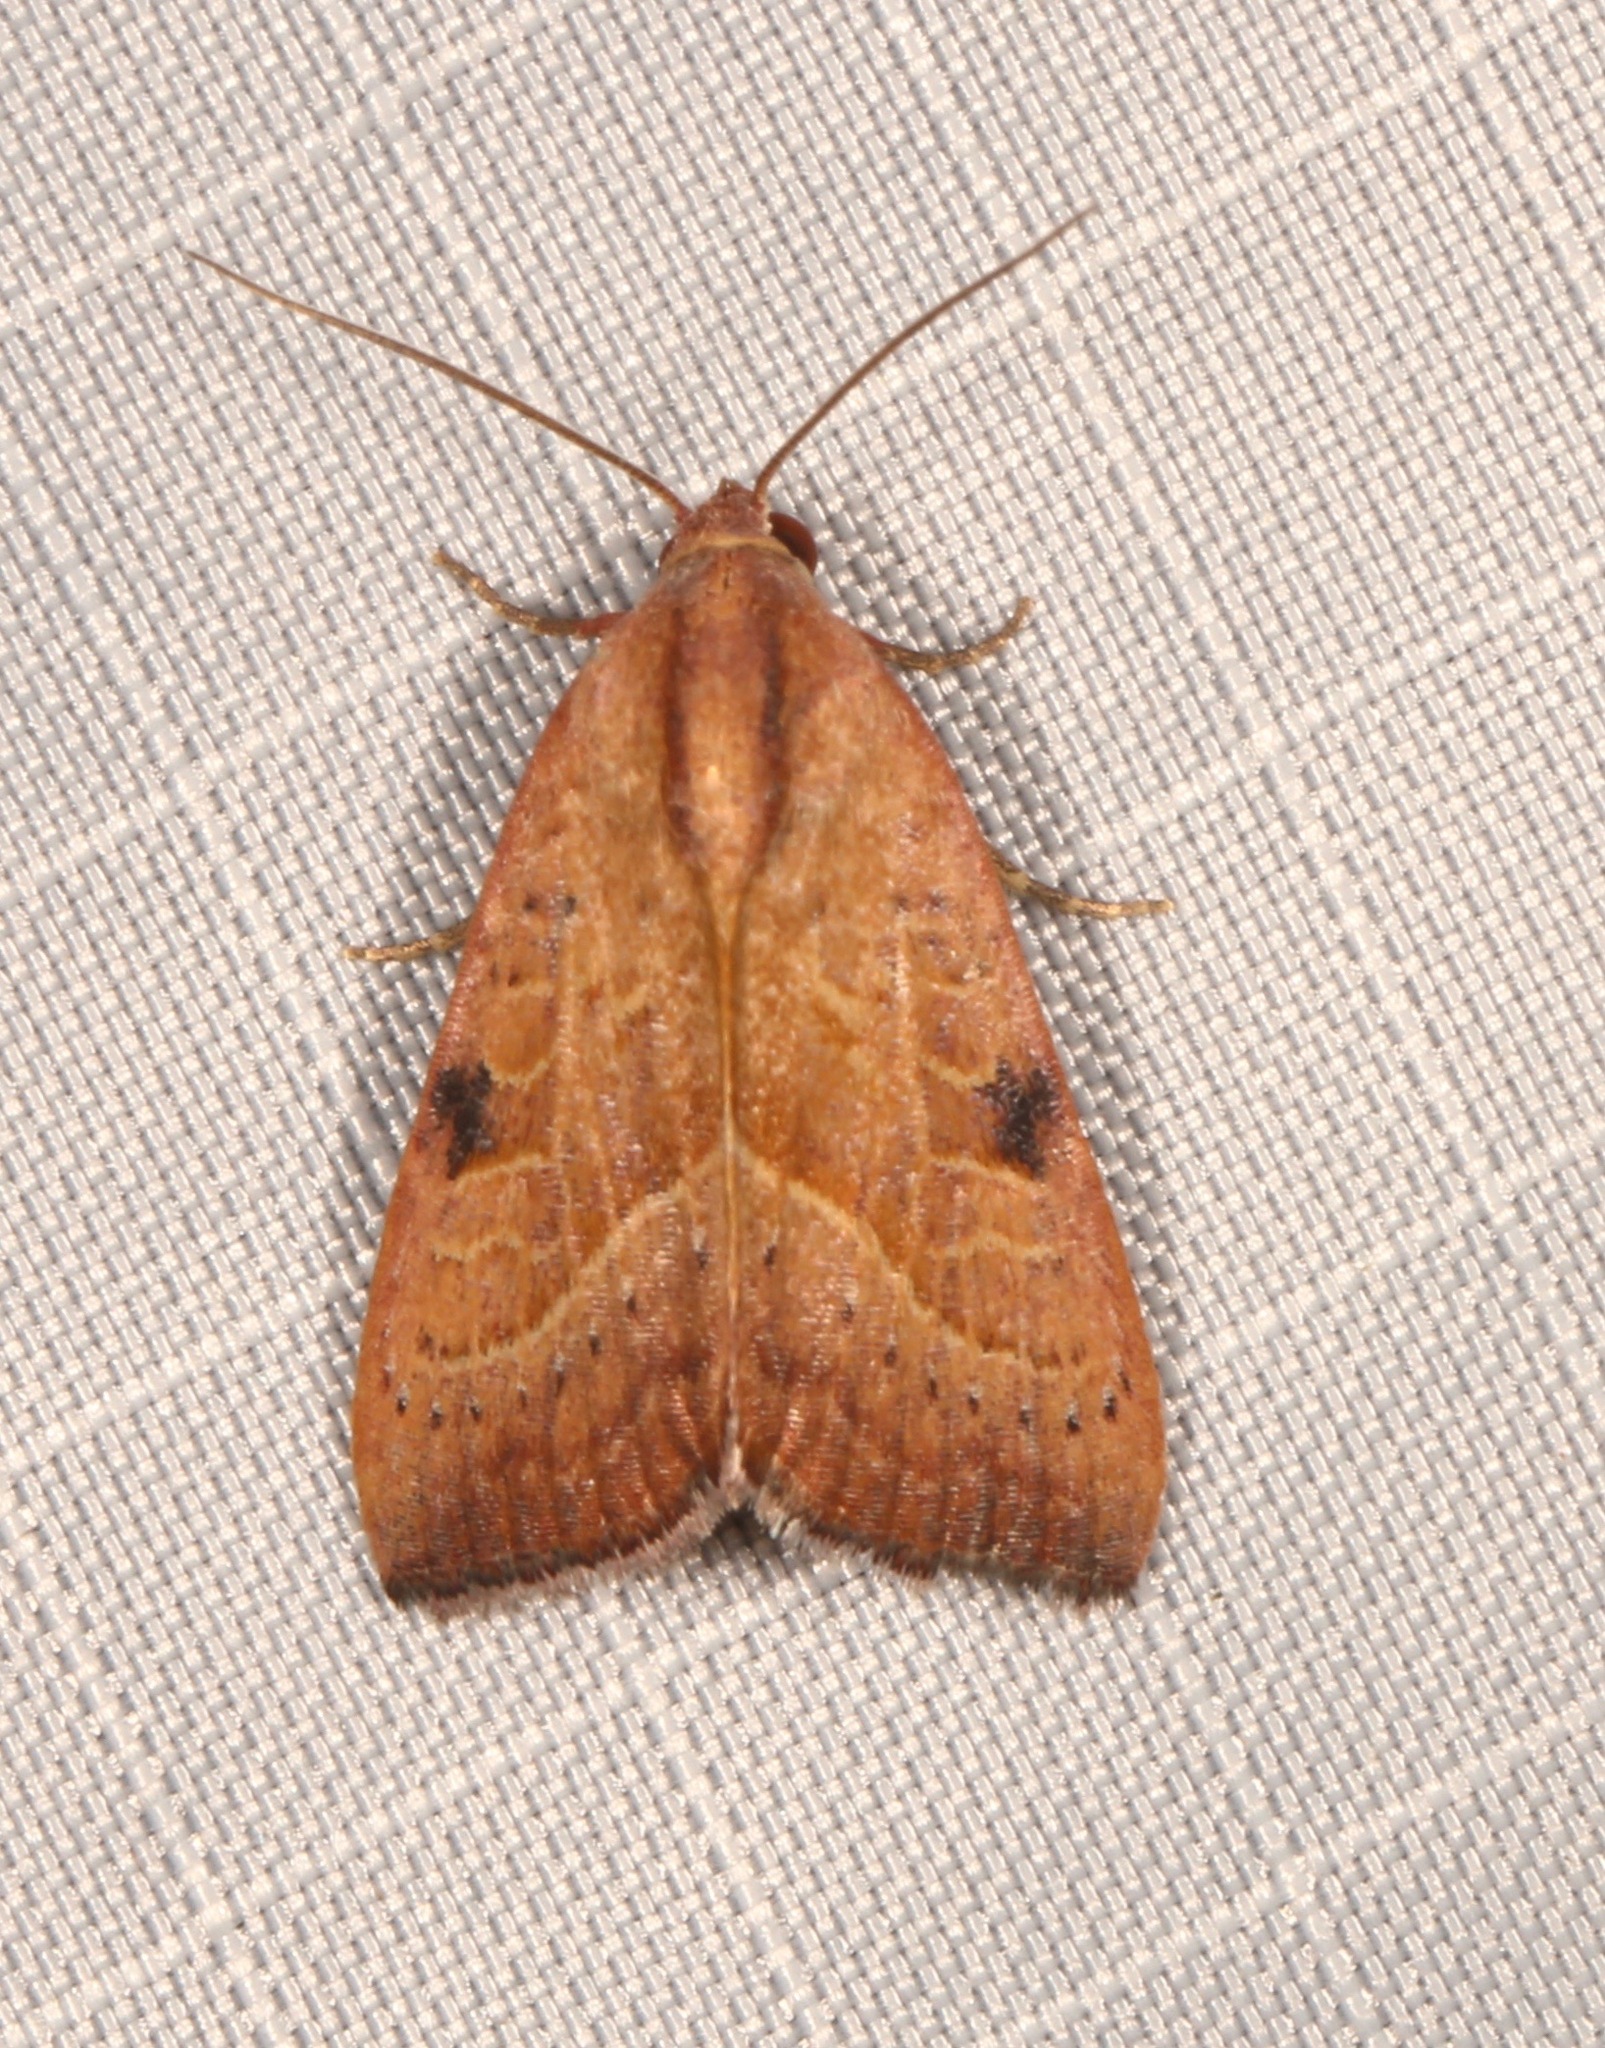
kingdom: Animalia
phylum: Arthropoda
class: Insecta
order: Lepidoptera
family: Noctuidae
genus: Galgula
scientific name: Galgula partita
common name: Wedgeling
